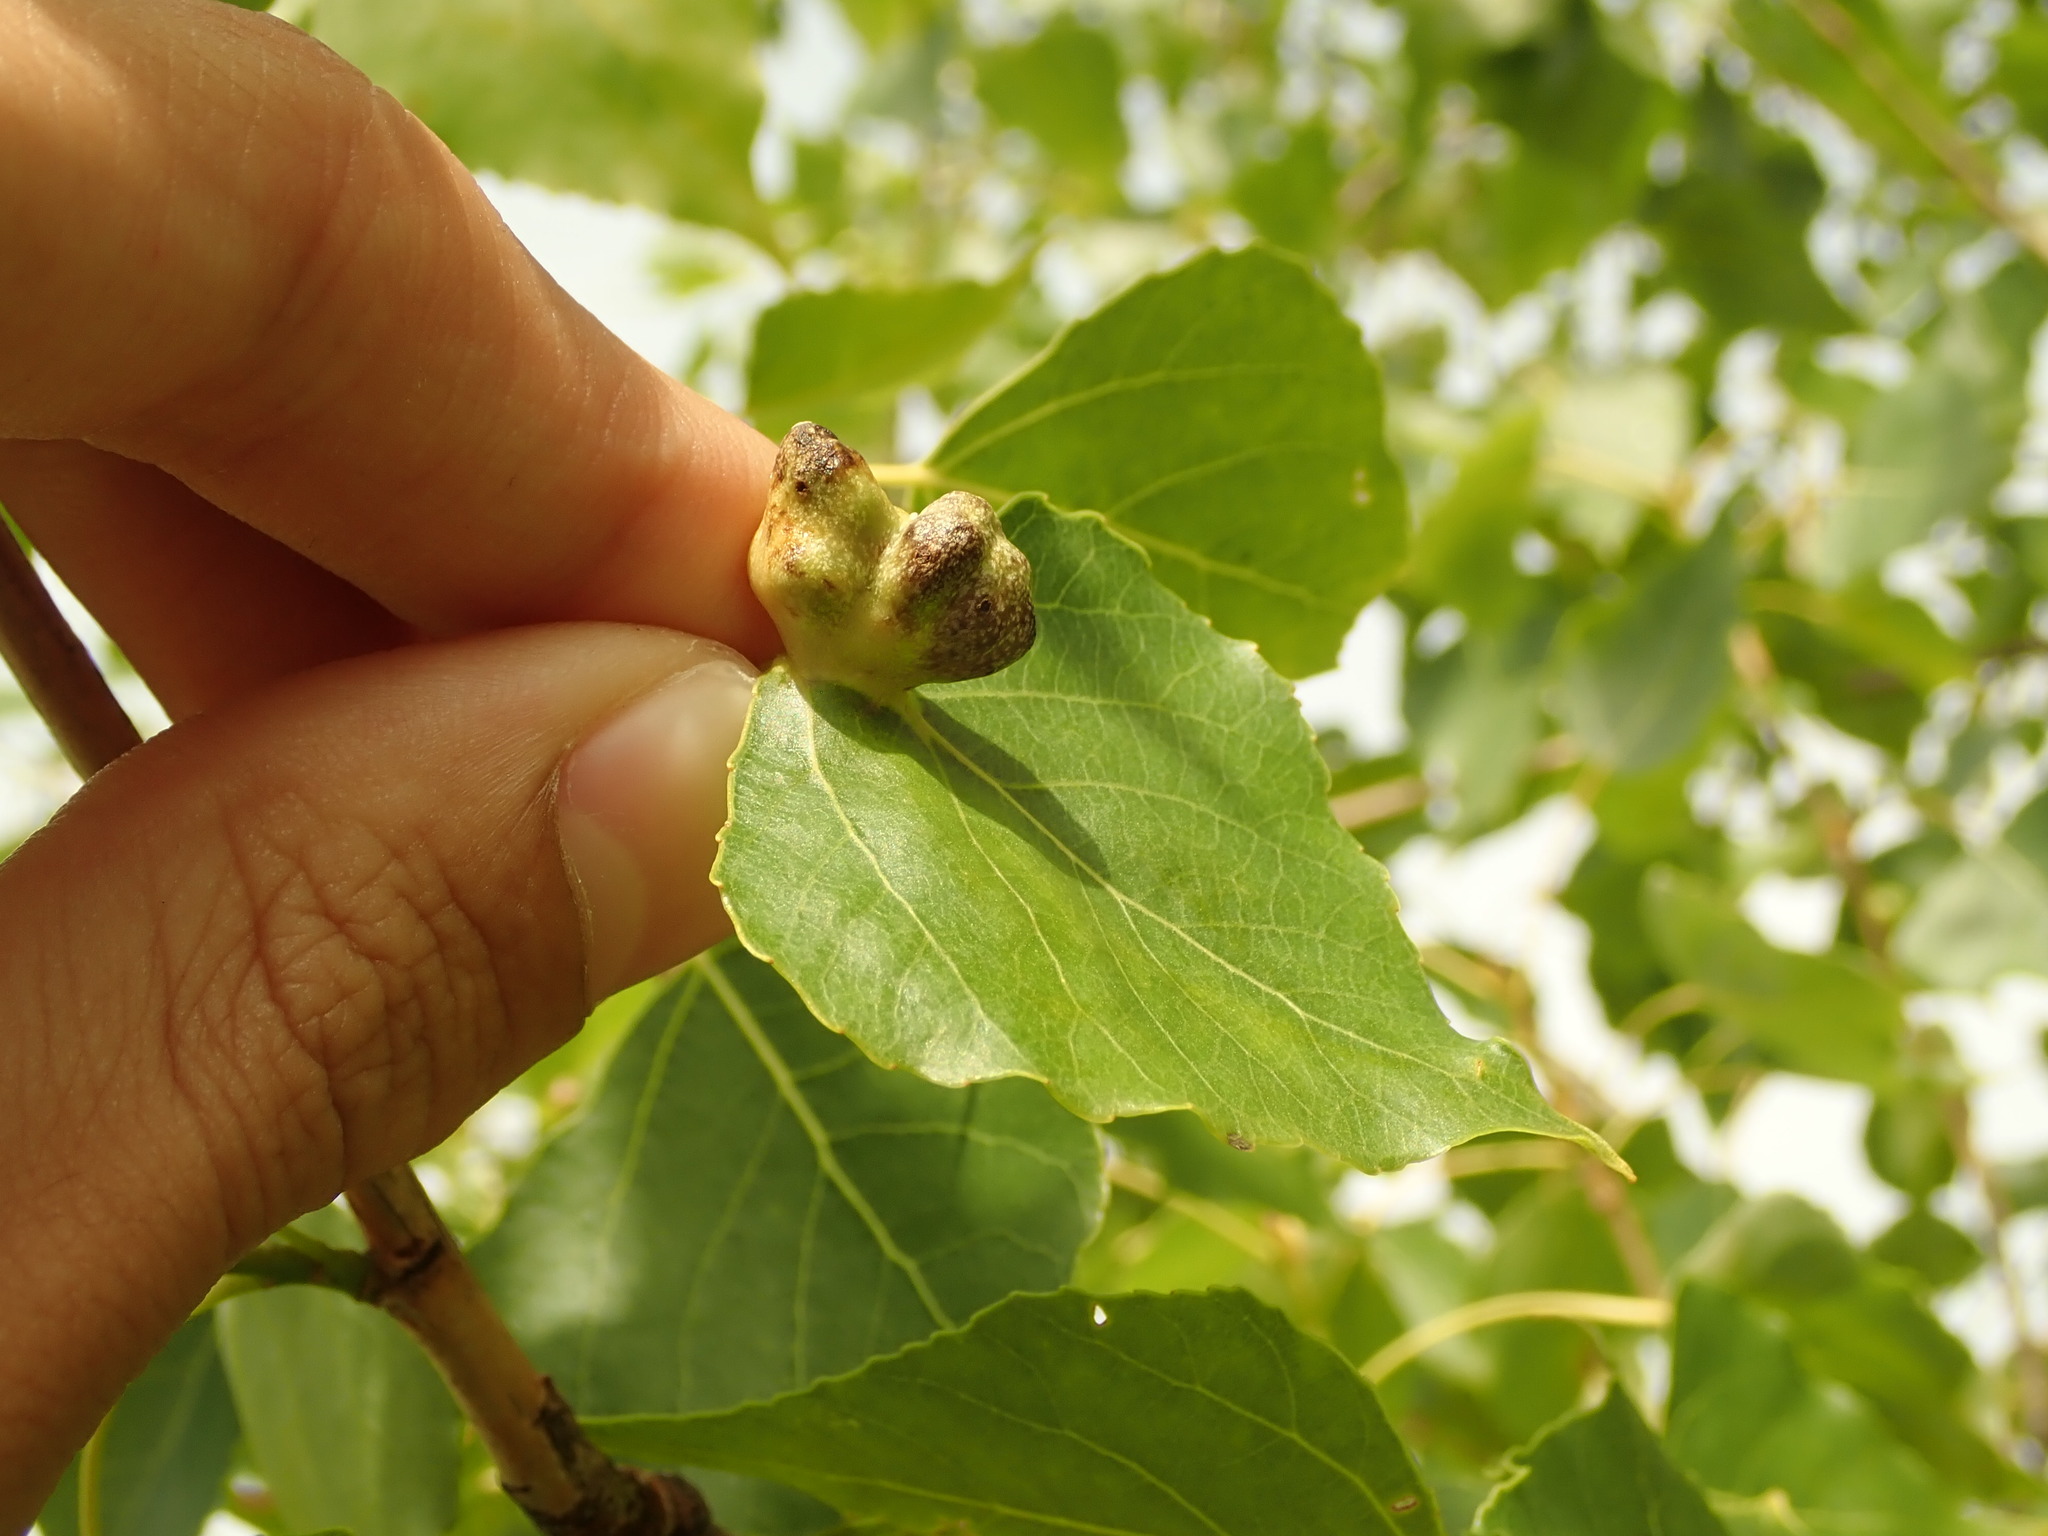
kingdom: Animalia
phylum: Arthropoda
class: Insecta
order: Hemiptera
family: Aphididae
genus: Pemphigus
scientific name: Pemphigus populi
